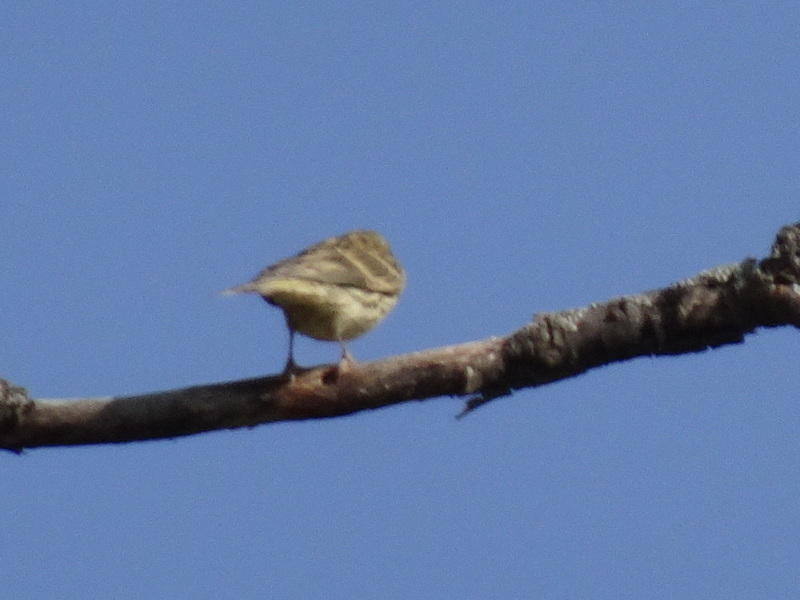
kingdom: Animalia
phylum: Chordata
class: Aves
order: Passeriformes
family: Fringillidae
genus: Serinus
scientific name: Serinus serinus
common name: European serin
